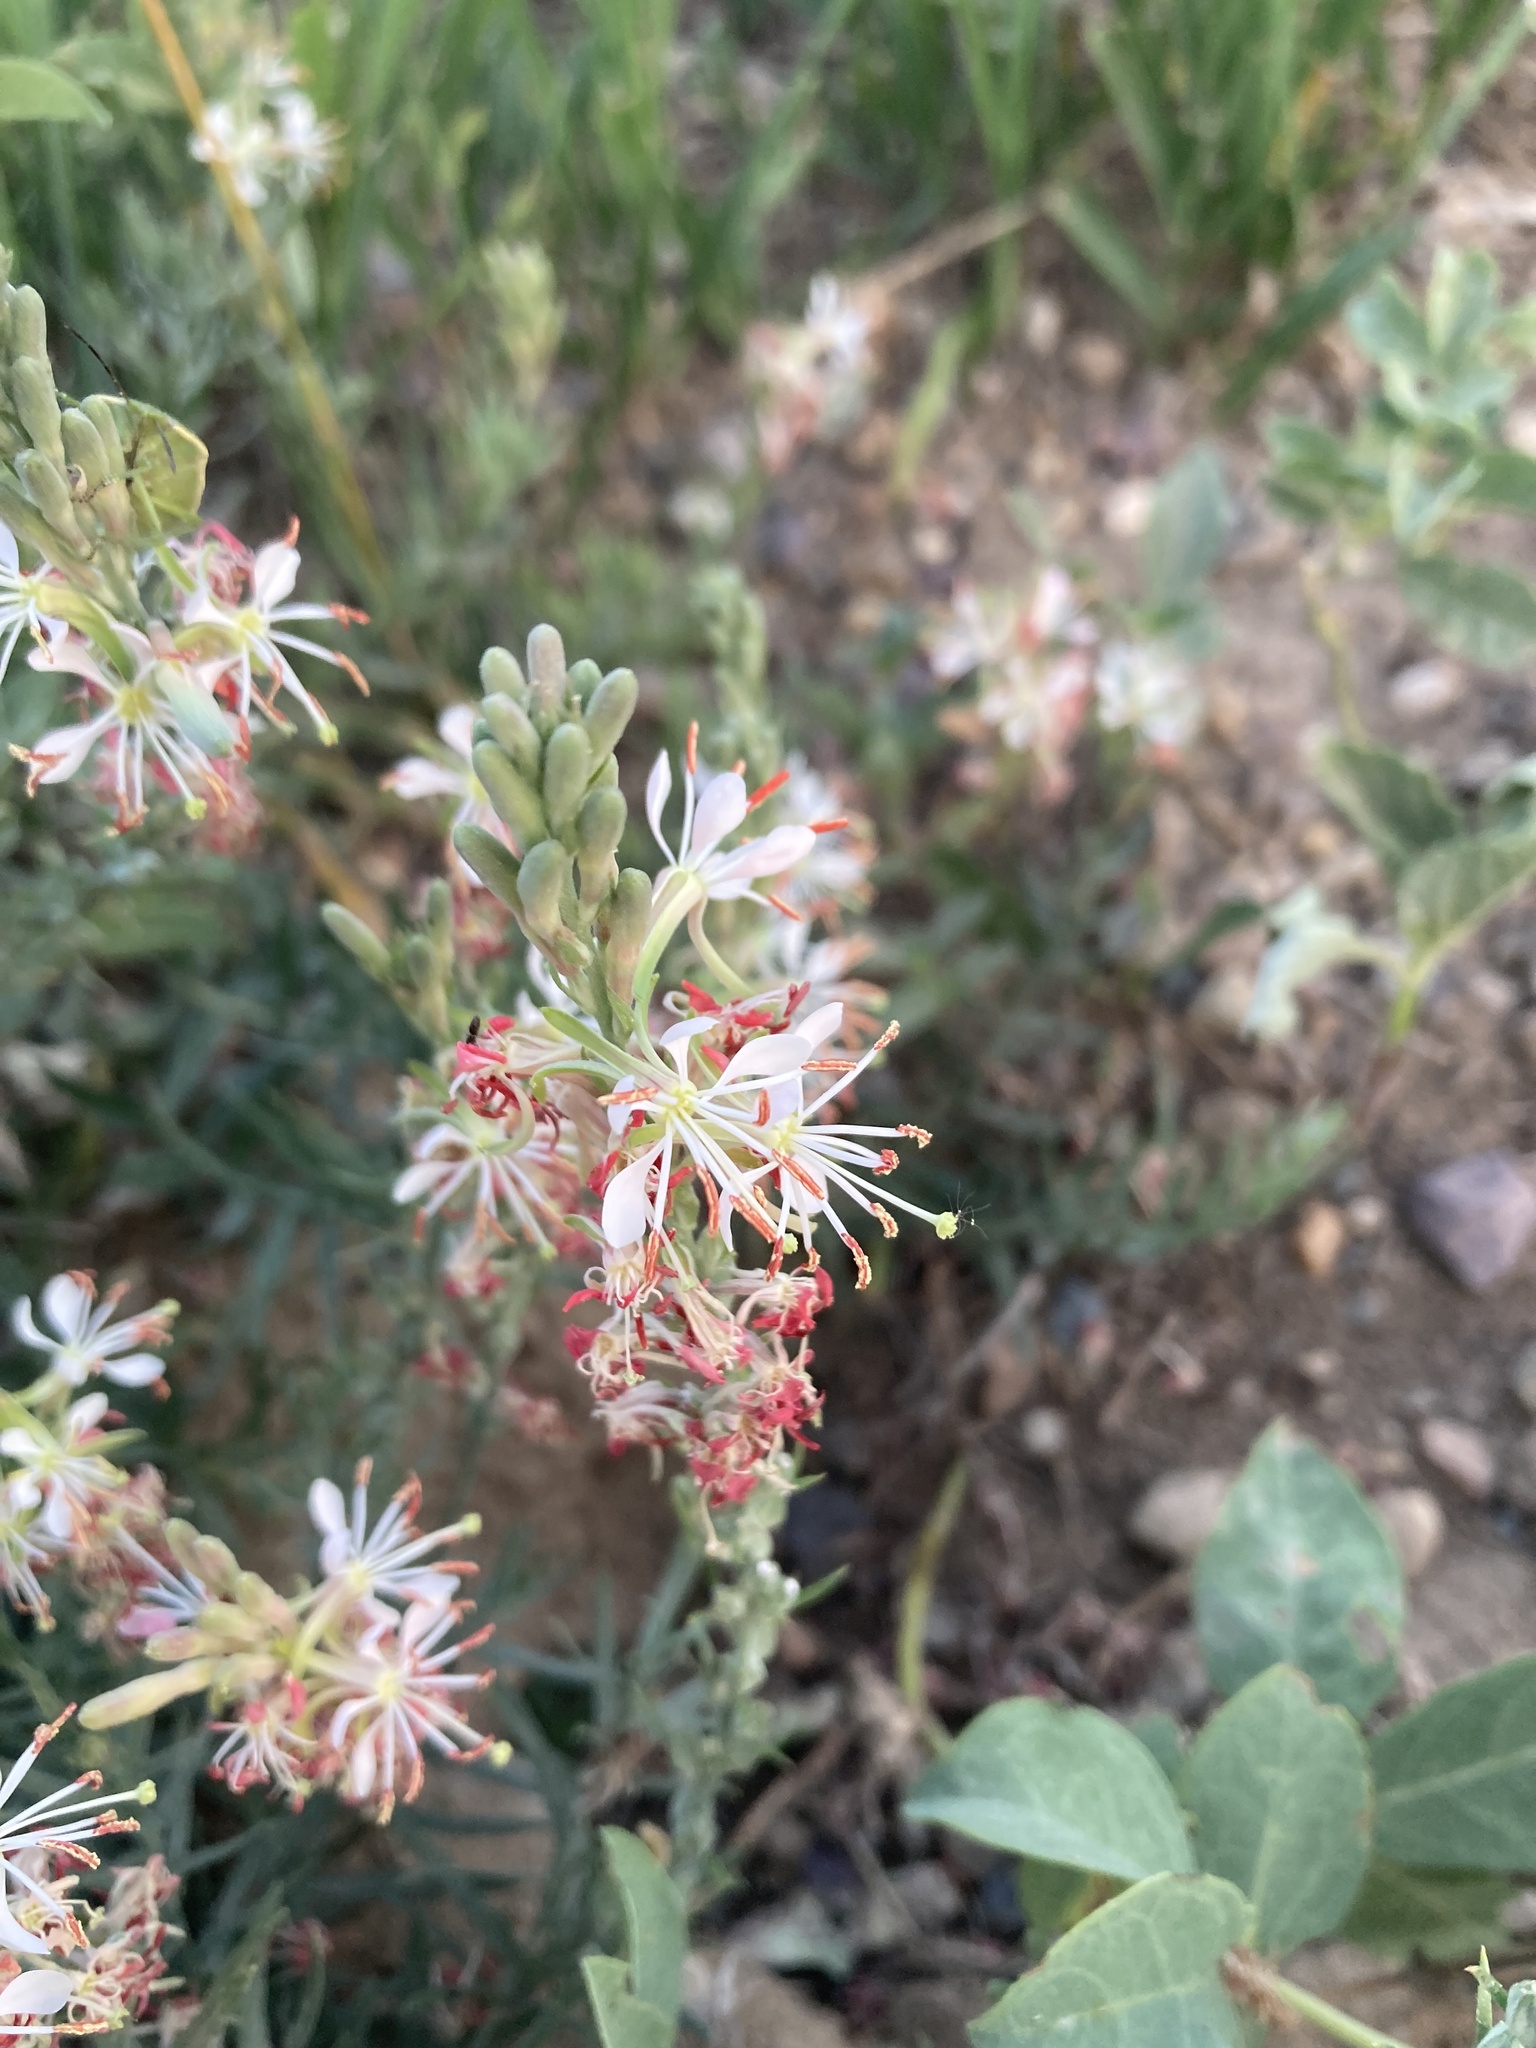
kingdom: Plantae
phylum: Tracheophyta
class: Magnoliopsida
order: Myrtales
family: Onagraceae
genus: Oenothera
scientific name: Oenothera suffrutescens
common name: Scarlet beeblossom
